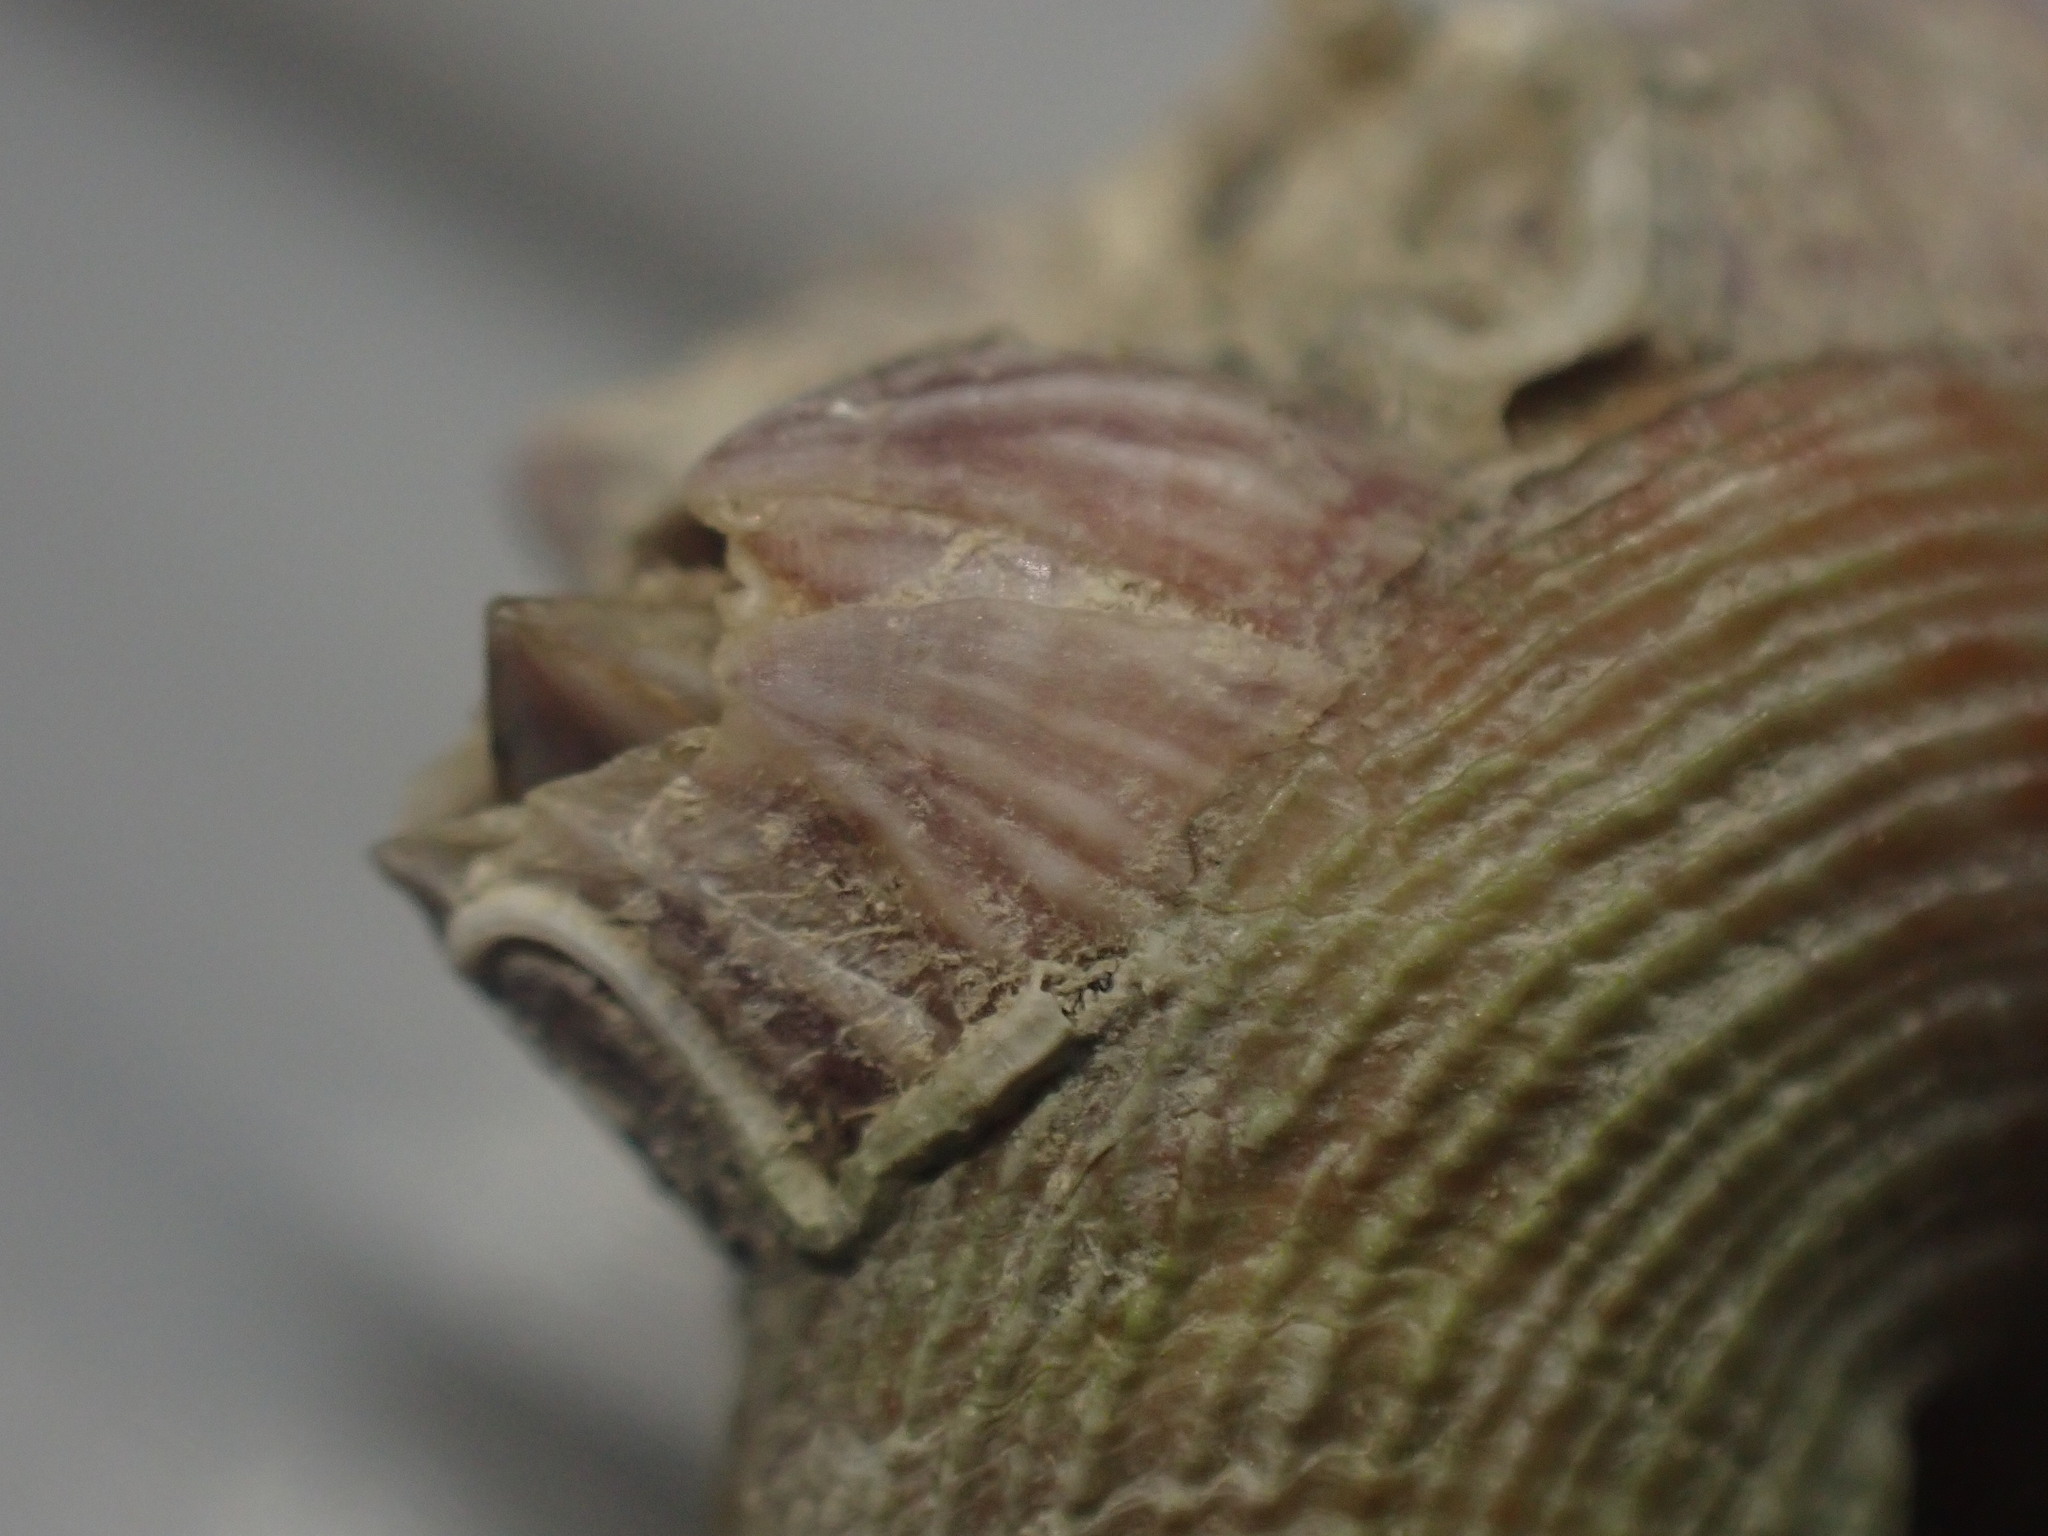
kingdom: Animalia
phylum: Arthropoda
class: Maxillopoda
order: Sessilia
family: Balanidae
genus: Balanus
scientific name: Balanus trigonus
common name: Triangle barnacle
